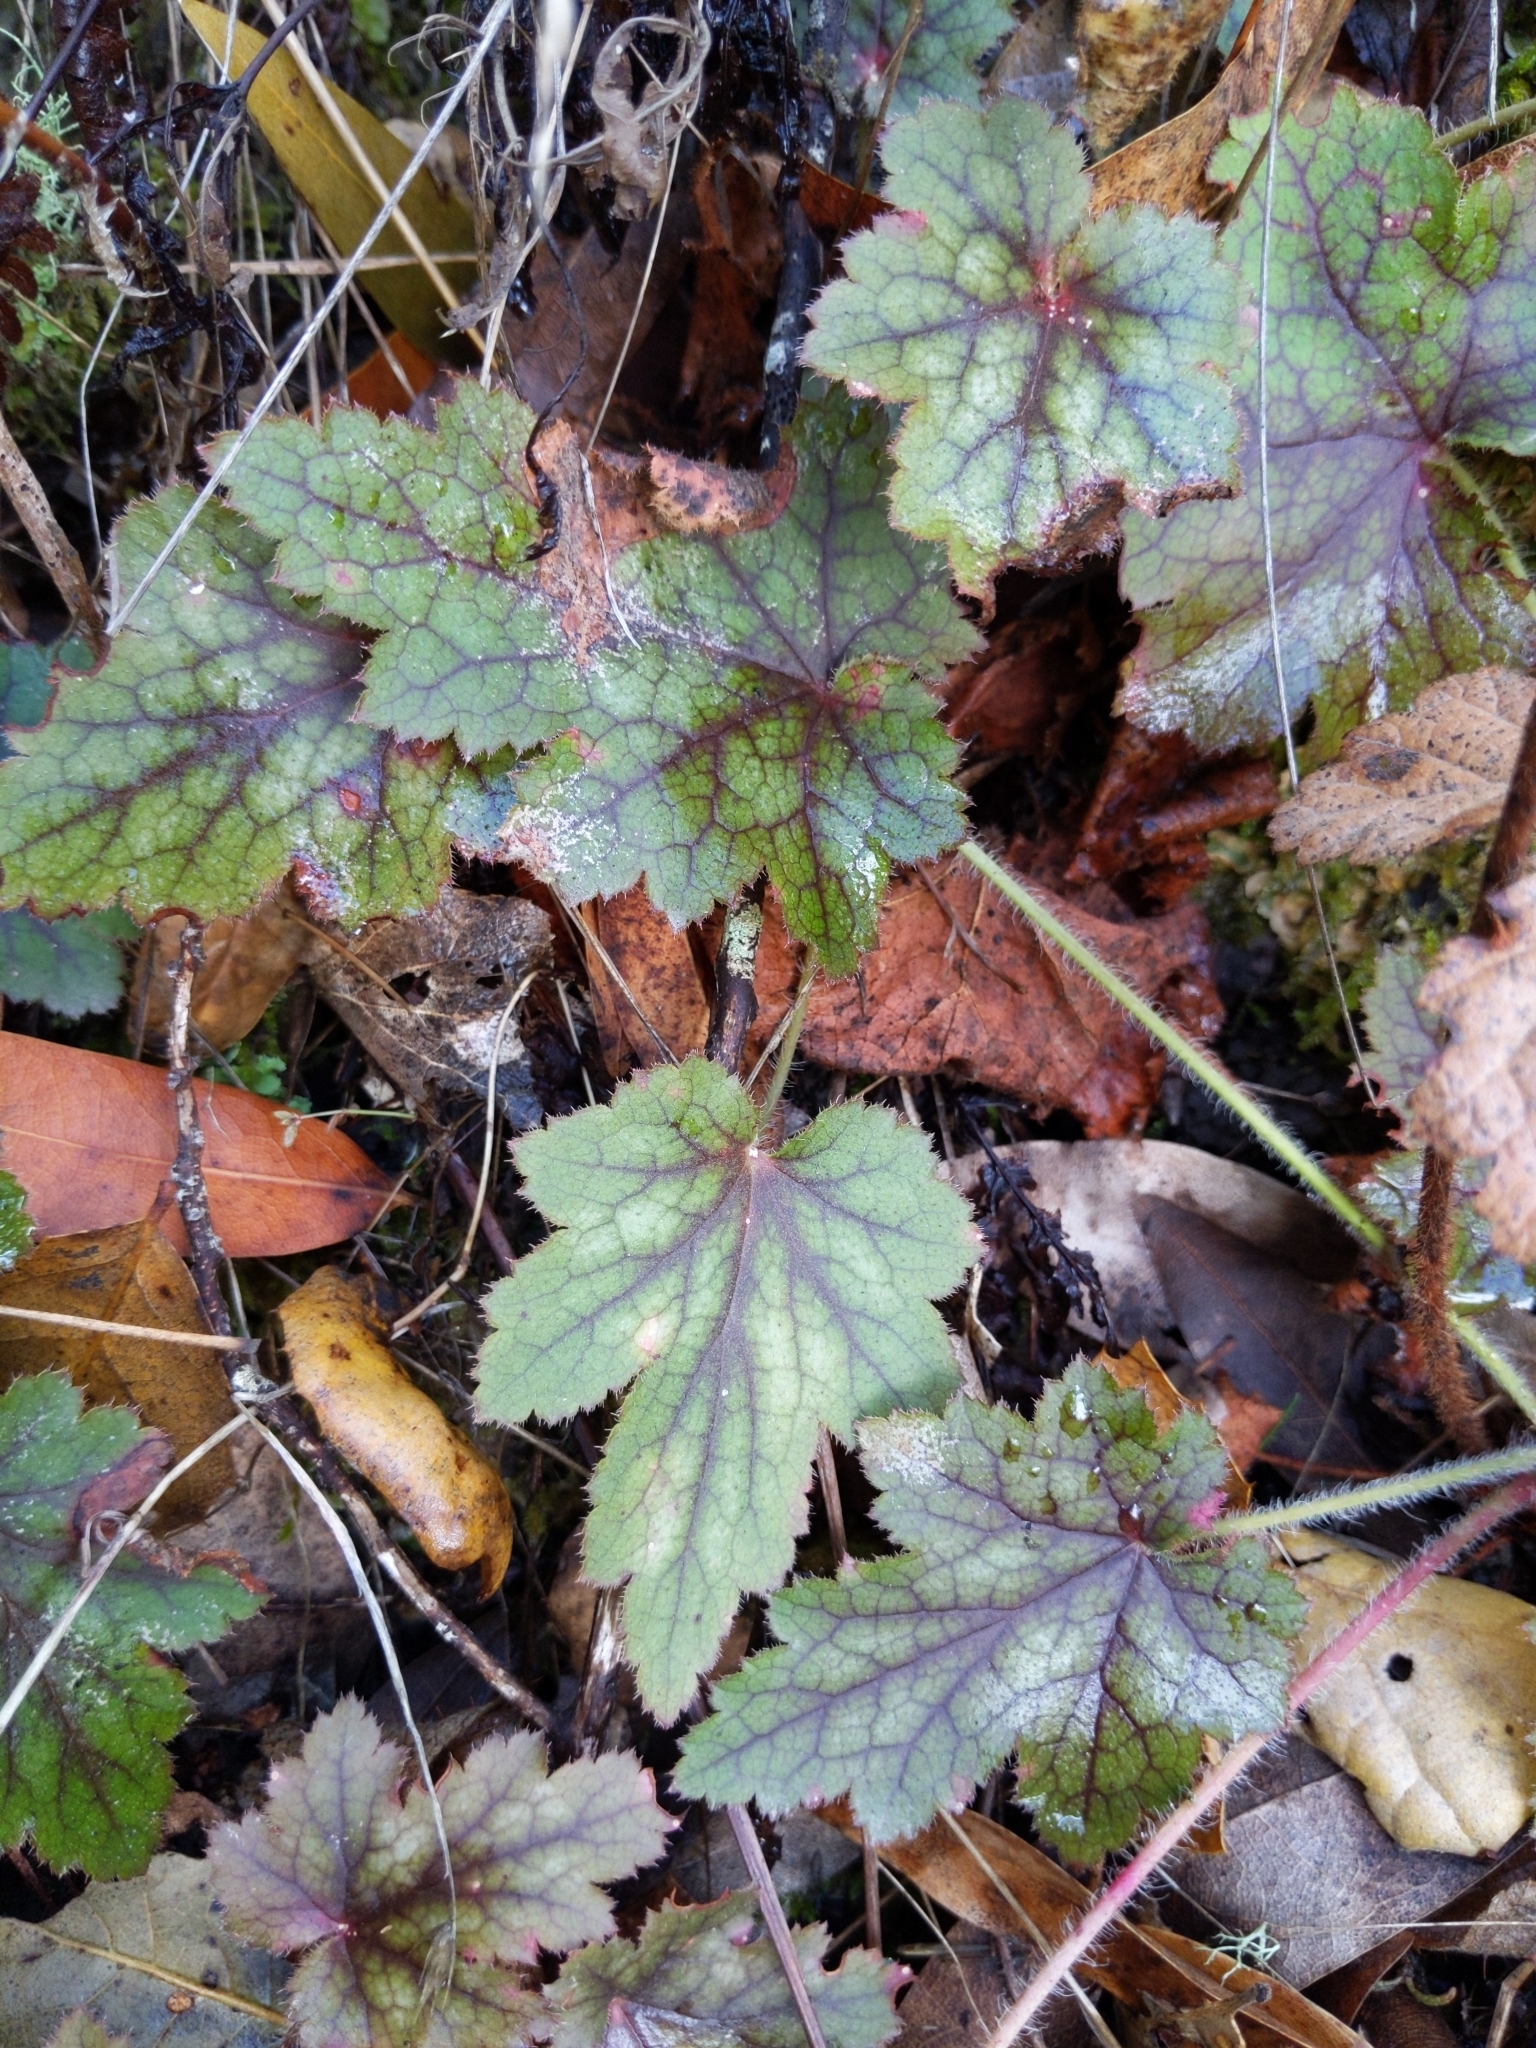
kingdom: Plantae
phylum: Tracheophyta
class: Magnoliopsida
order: Saxifragales
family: Saxifragaceae
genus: Heuchera
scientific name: Heuchera micrantha
